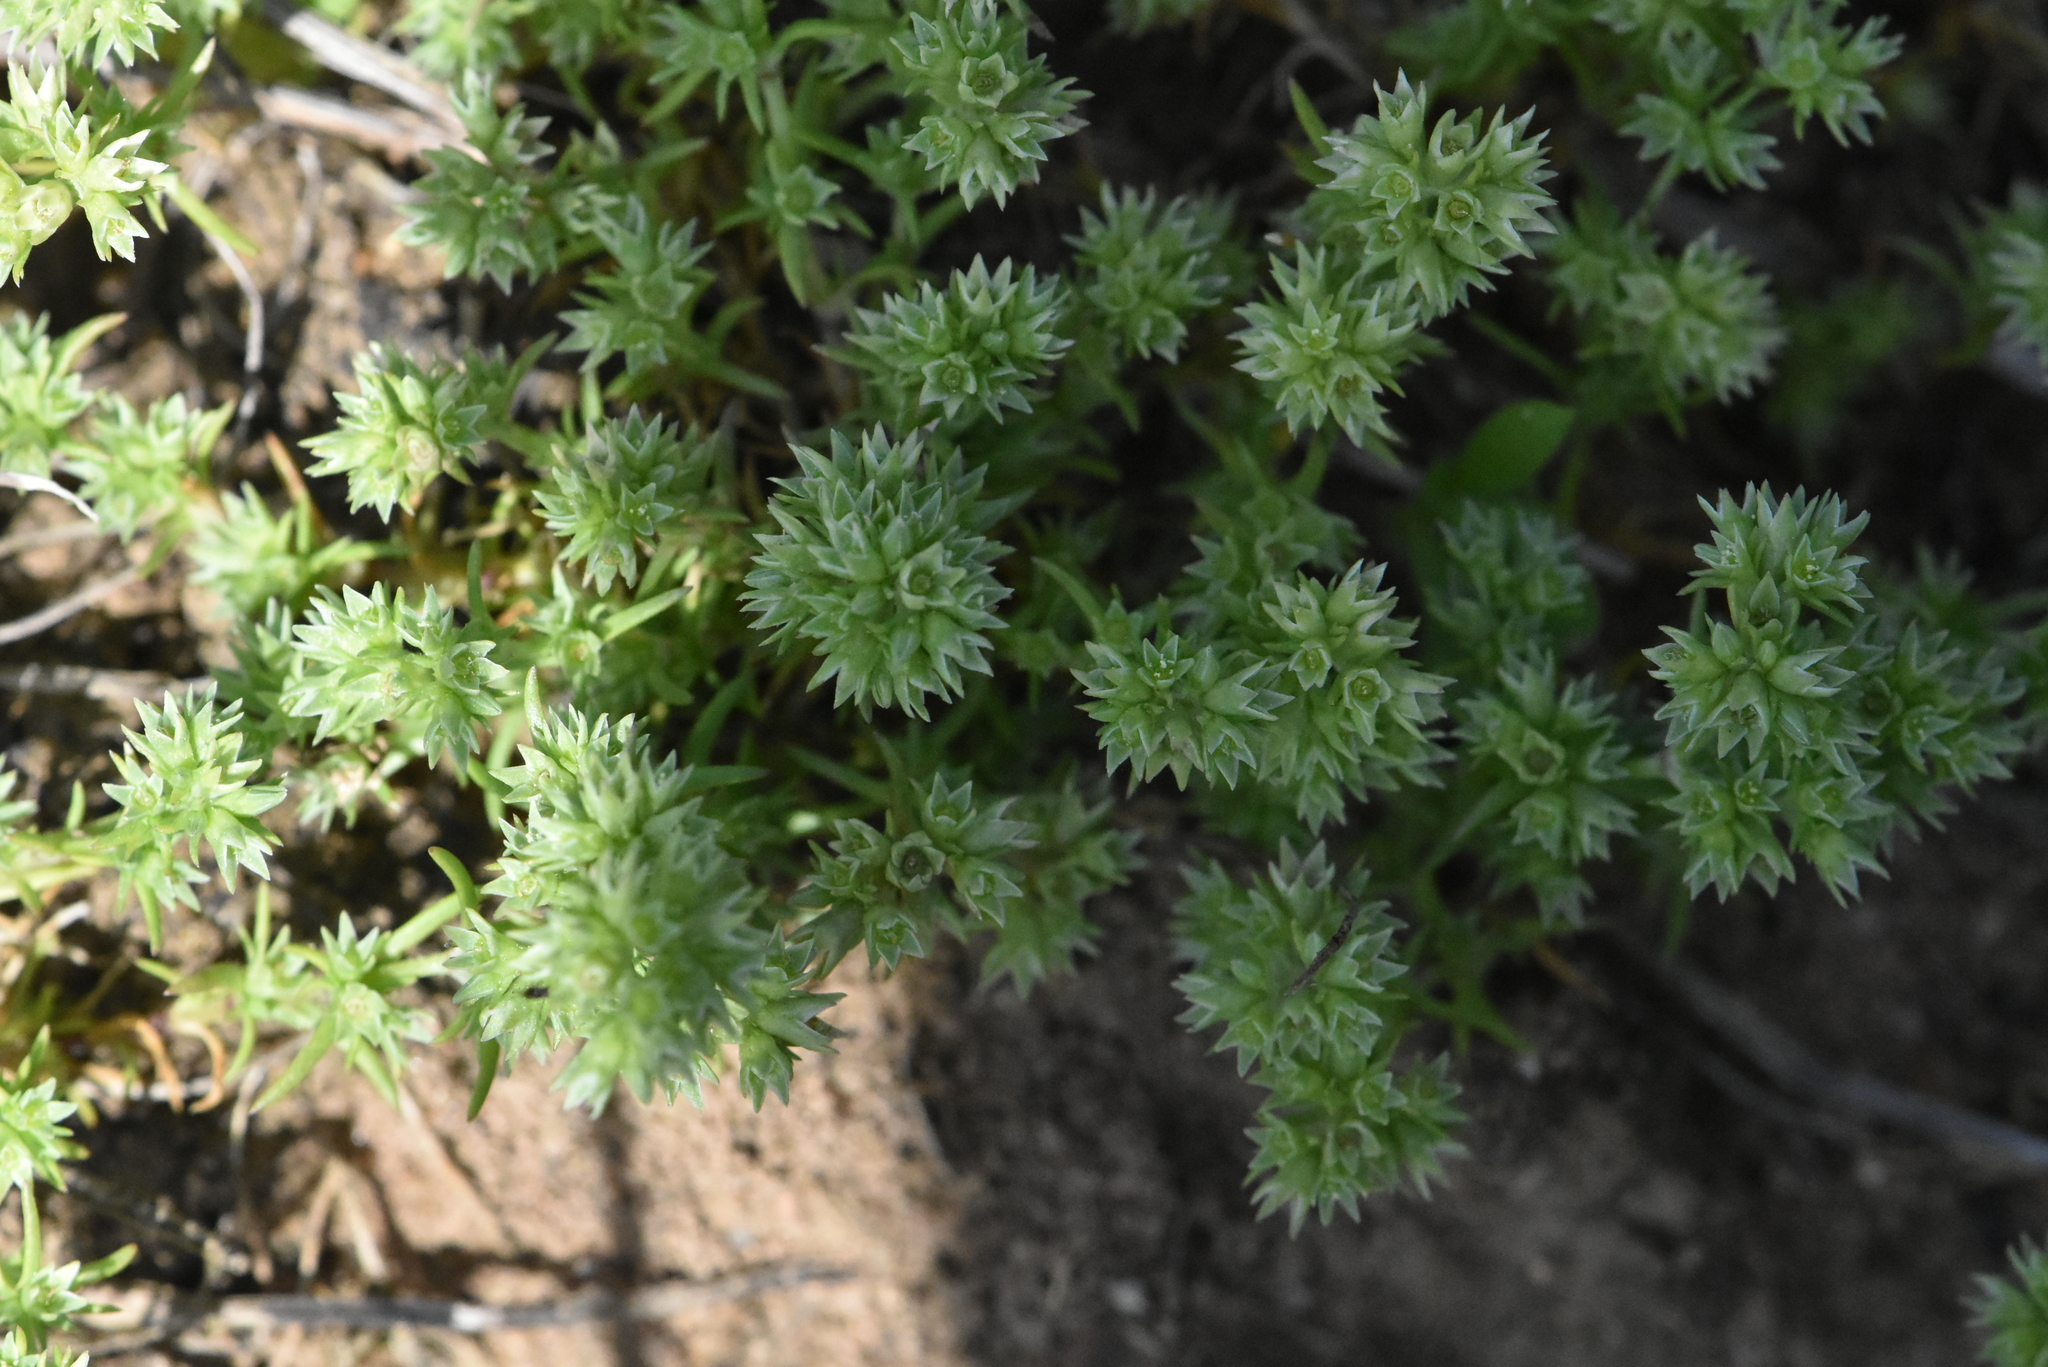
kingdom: Plantae
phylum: Tracheophyta
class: Magnoliopsida
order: Caryophyllales
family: Caryophyllaceae
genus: Scleranthus
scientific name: Scleranthus annuus
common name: Annual knawel
